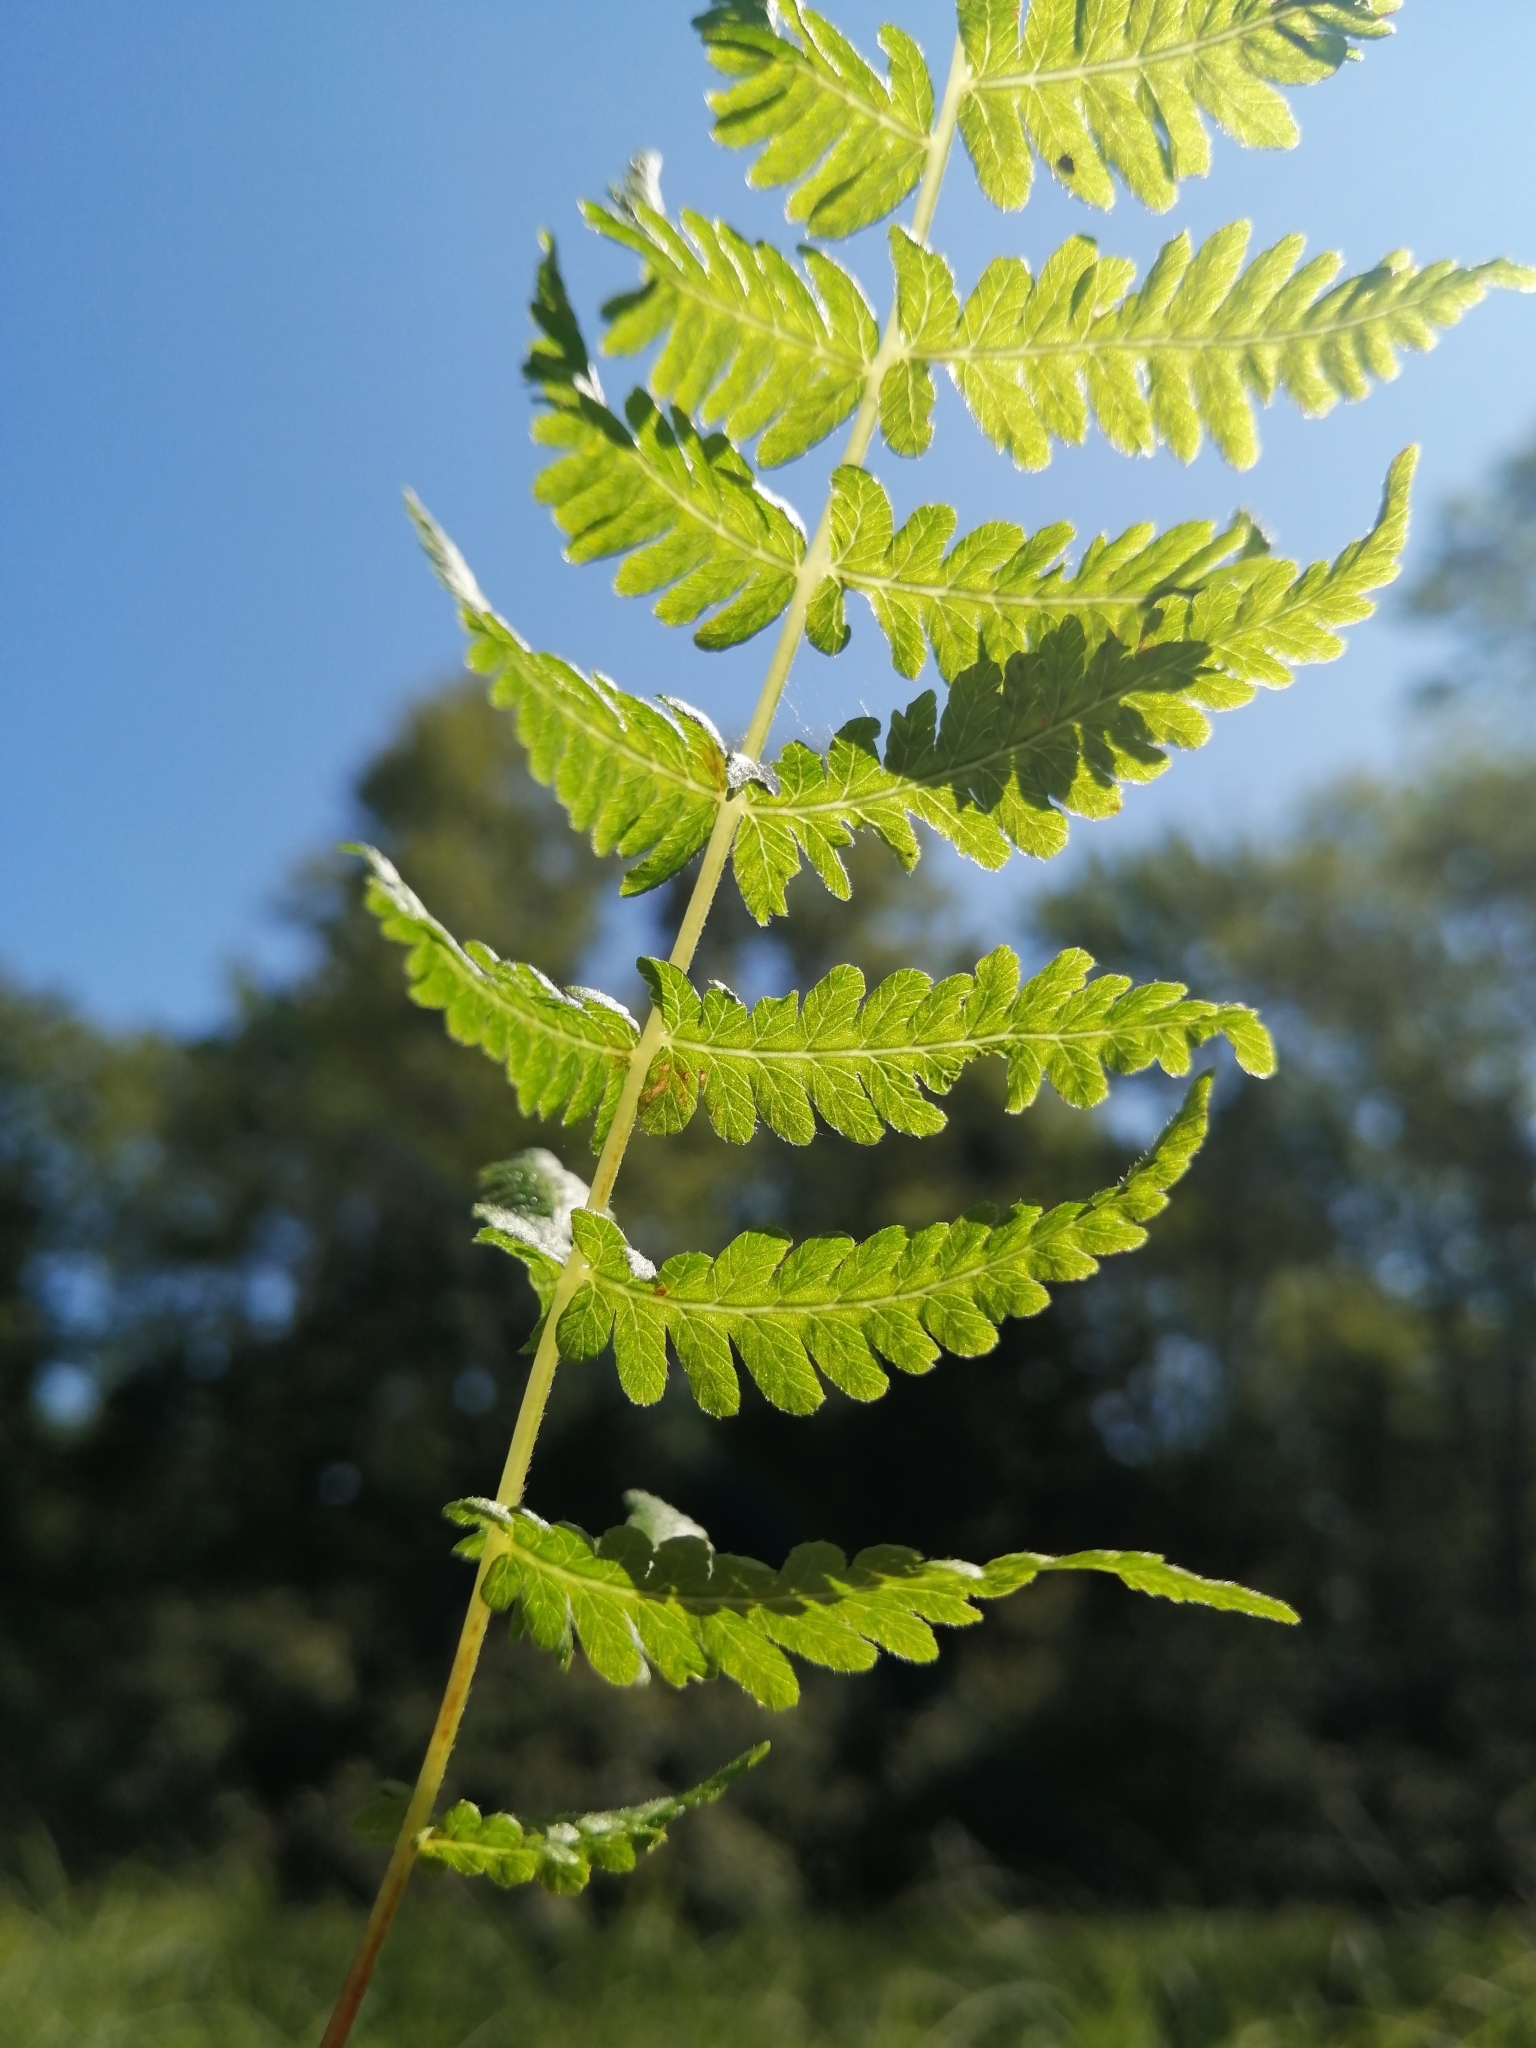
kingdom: Plantae
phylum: Tracheophyta
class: Polypodiopsida
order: Polypodiales
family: Thelypteridaceae
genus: Coryphopteris
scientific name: Coryphopteris simulata
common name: Bog fern
